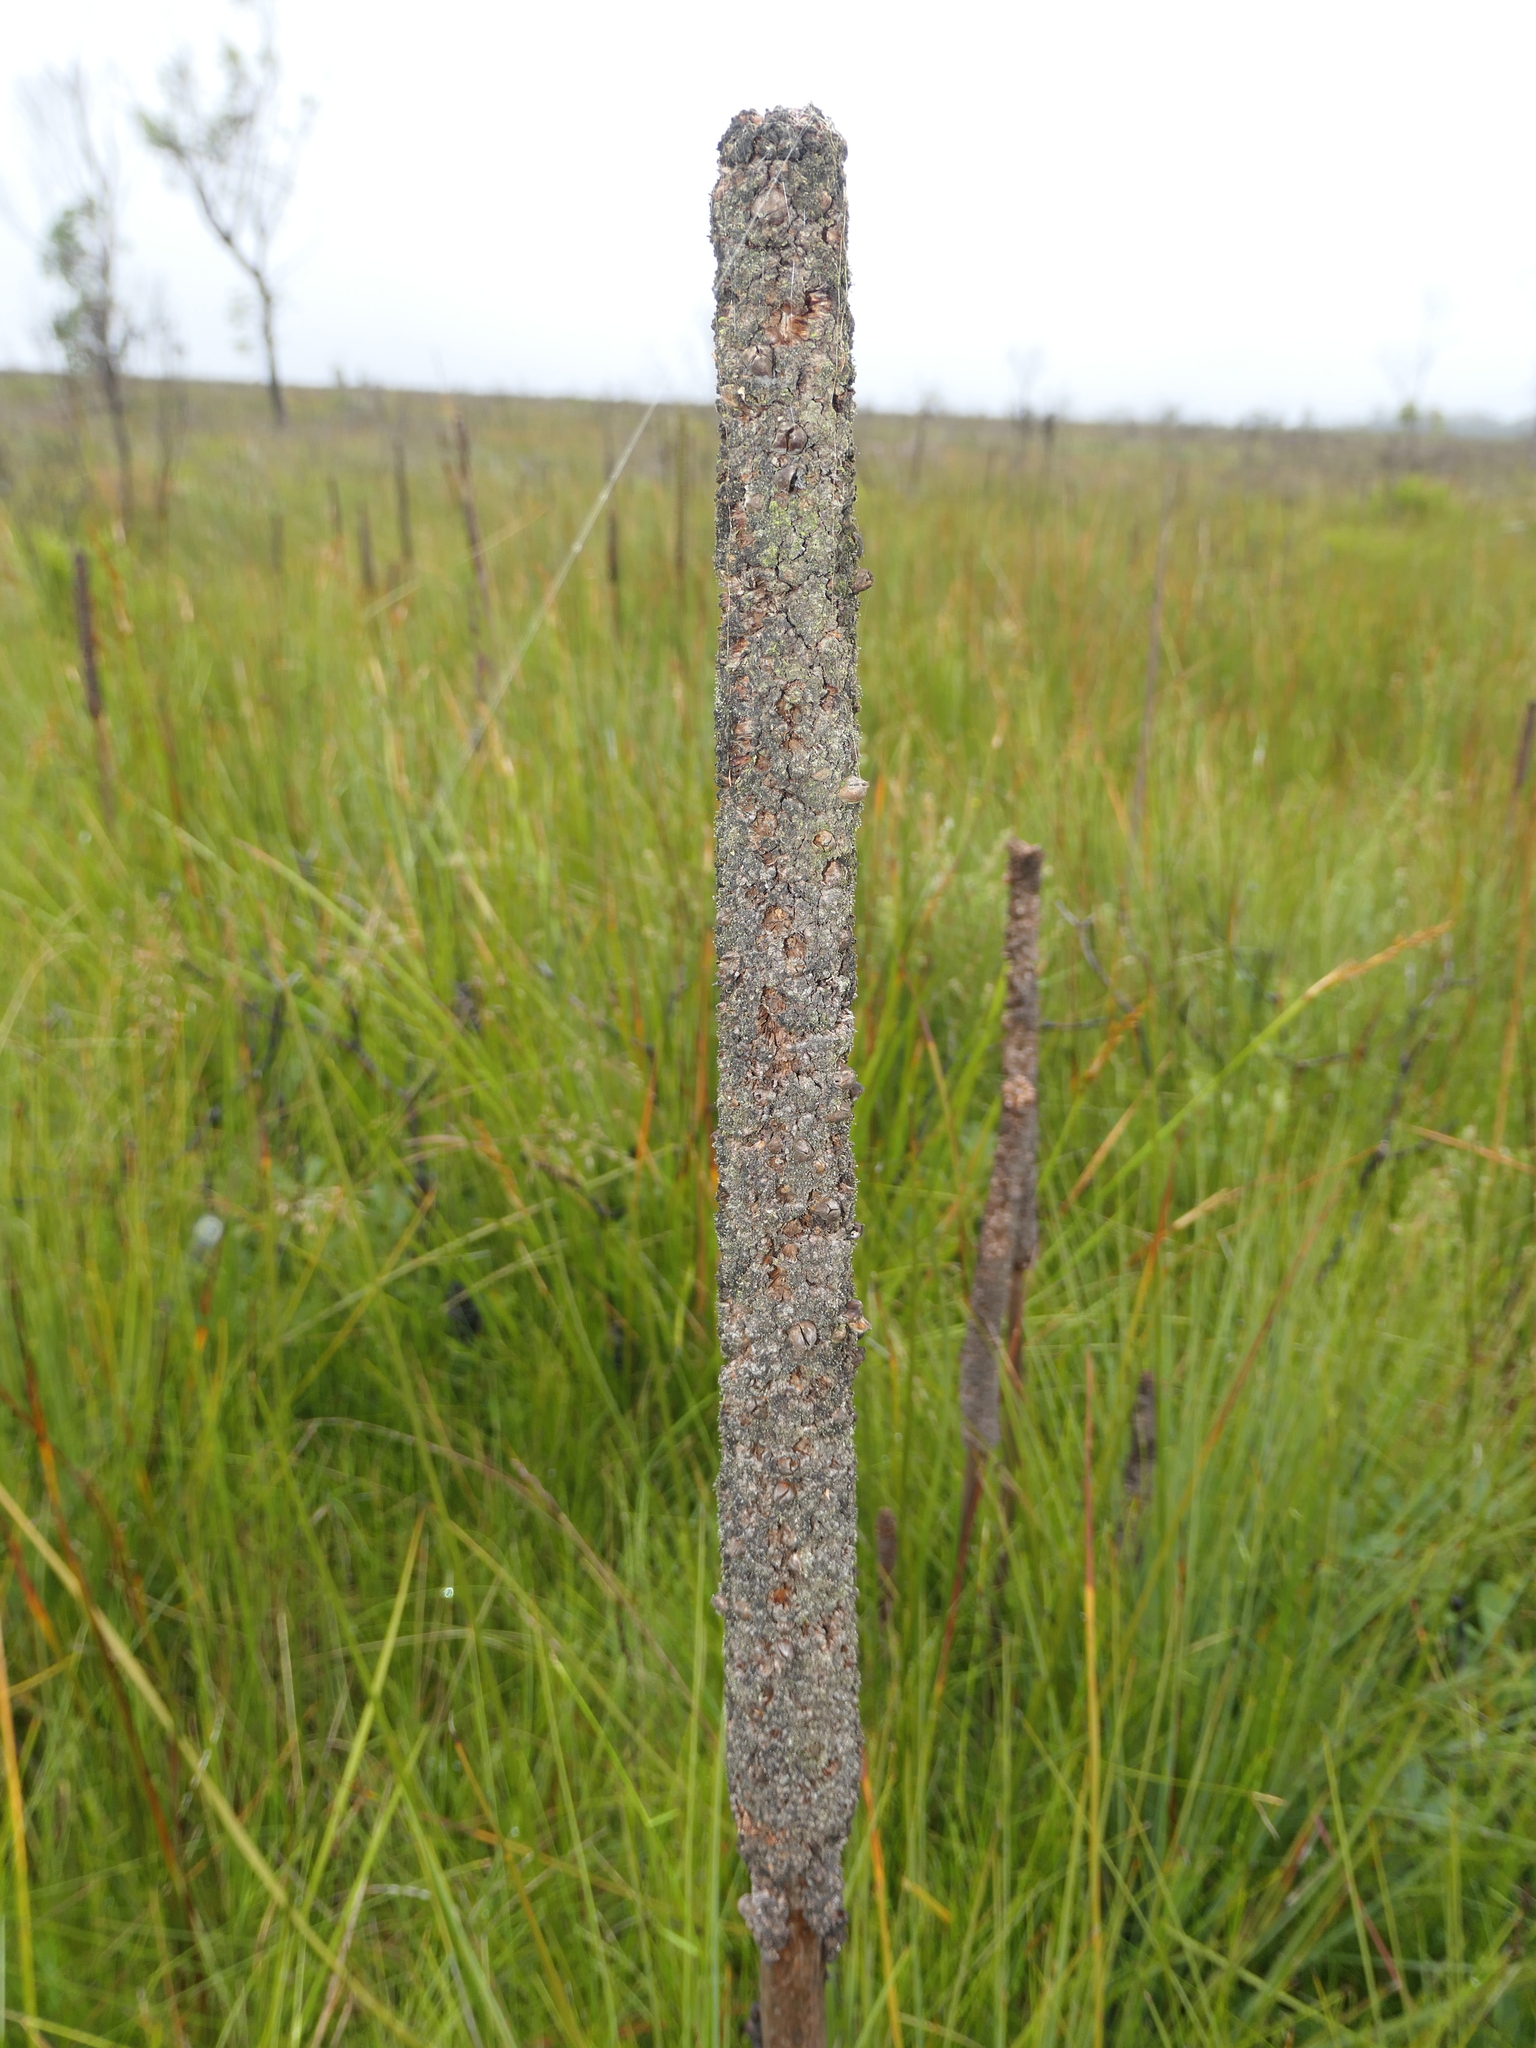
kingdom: Plantae
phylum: Tracheophyta
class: Liliopsida
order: Asparagales
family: Asphodelaceae
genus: Xanthorrhoea
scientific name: Xanthorrhoea resinosa
